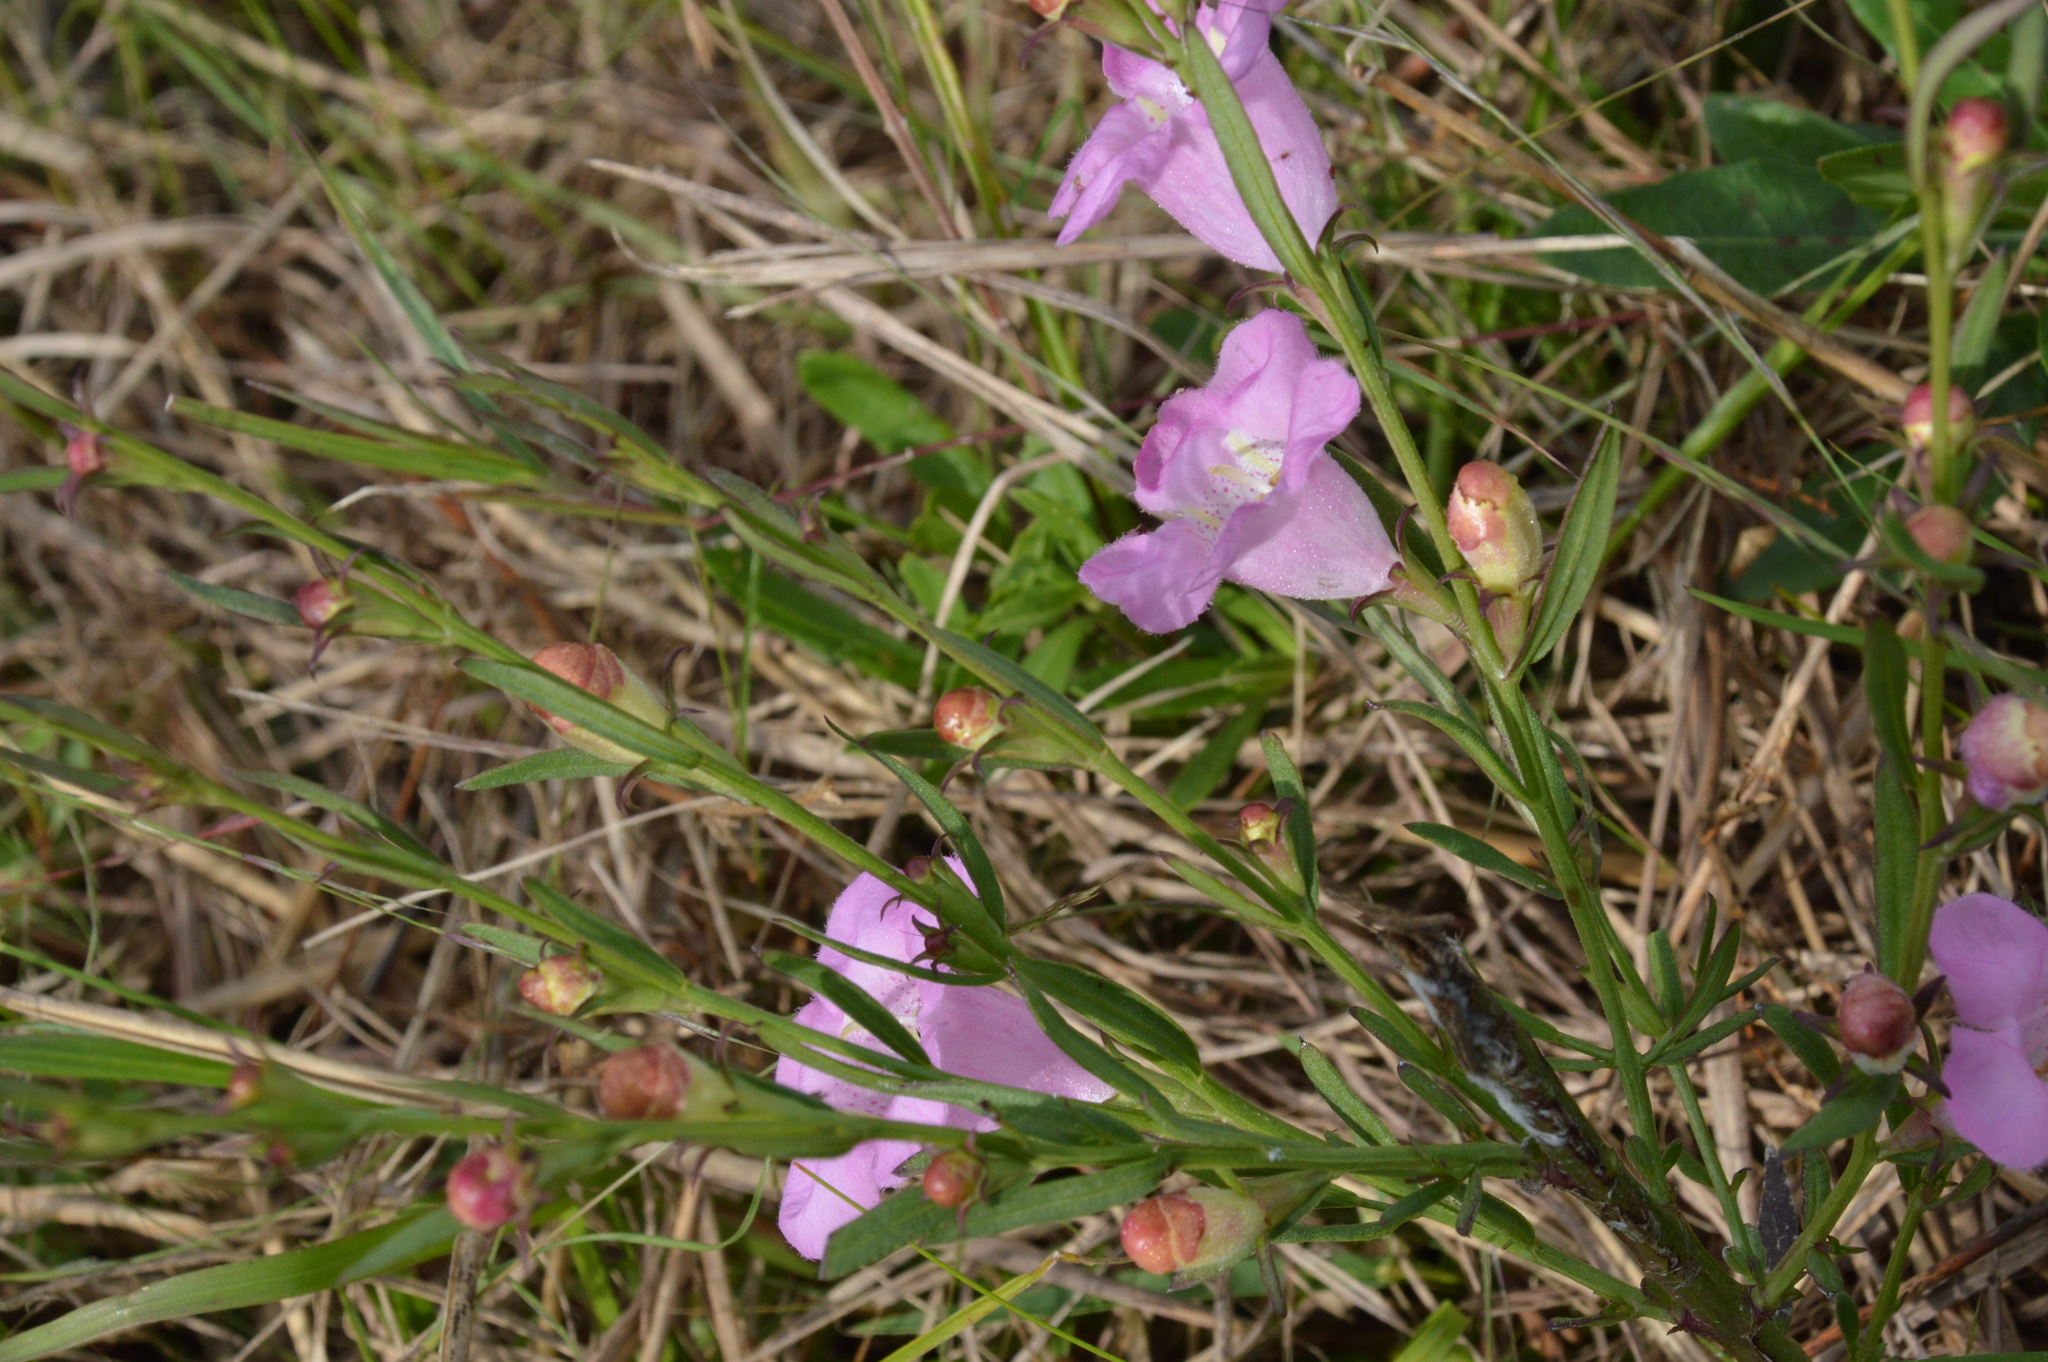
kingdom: Plantae
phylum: Tracheophyta
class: Magnoliopsida
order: Lamiales
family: Orobanchaceae
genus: Agalinis
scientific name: Agalinis heterophylla
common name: Prairie agalinis
